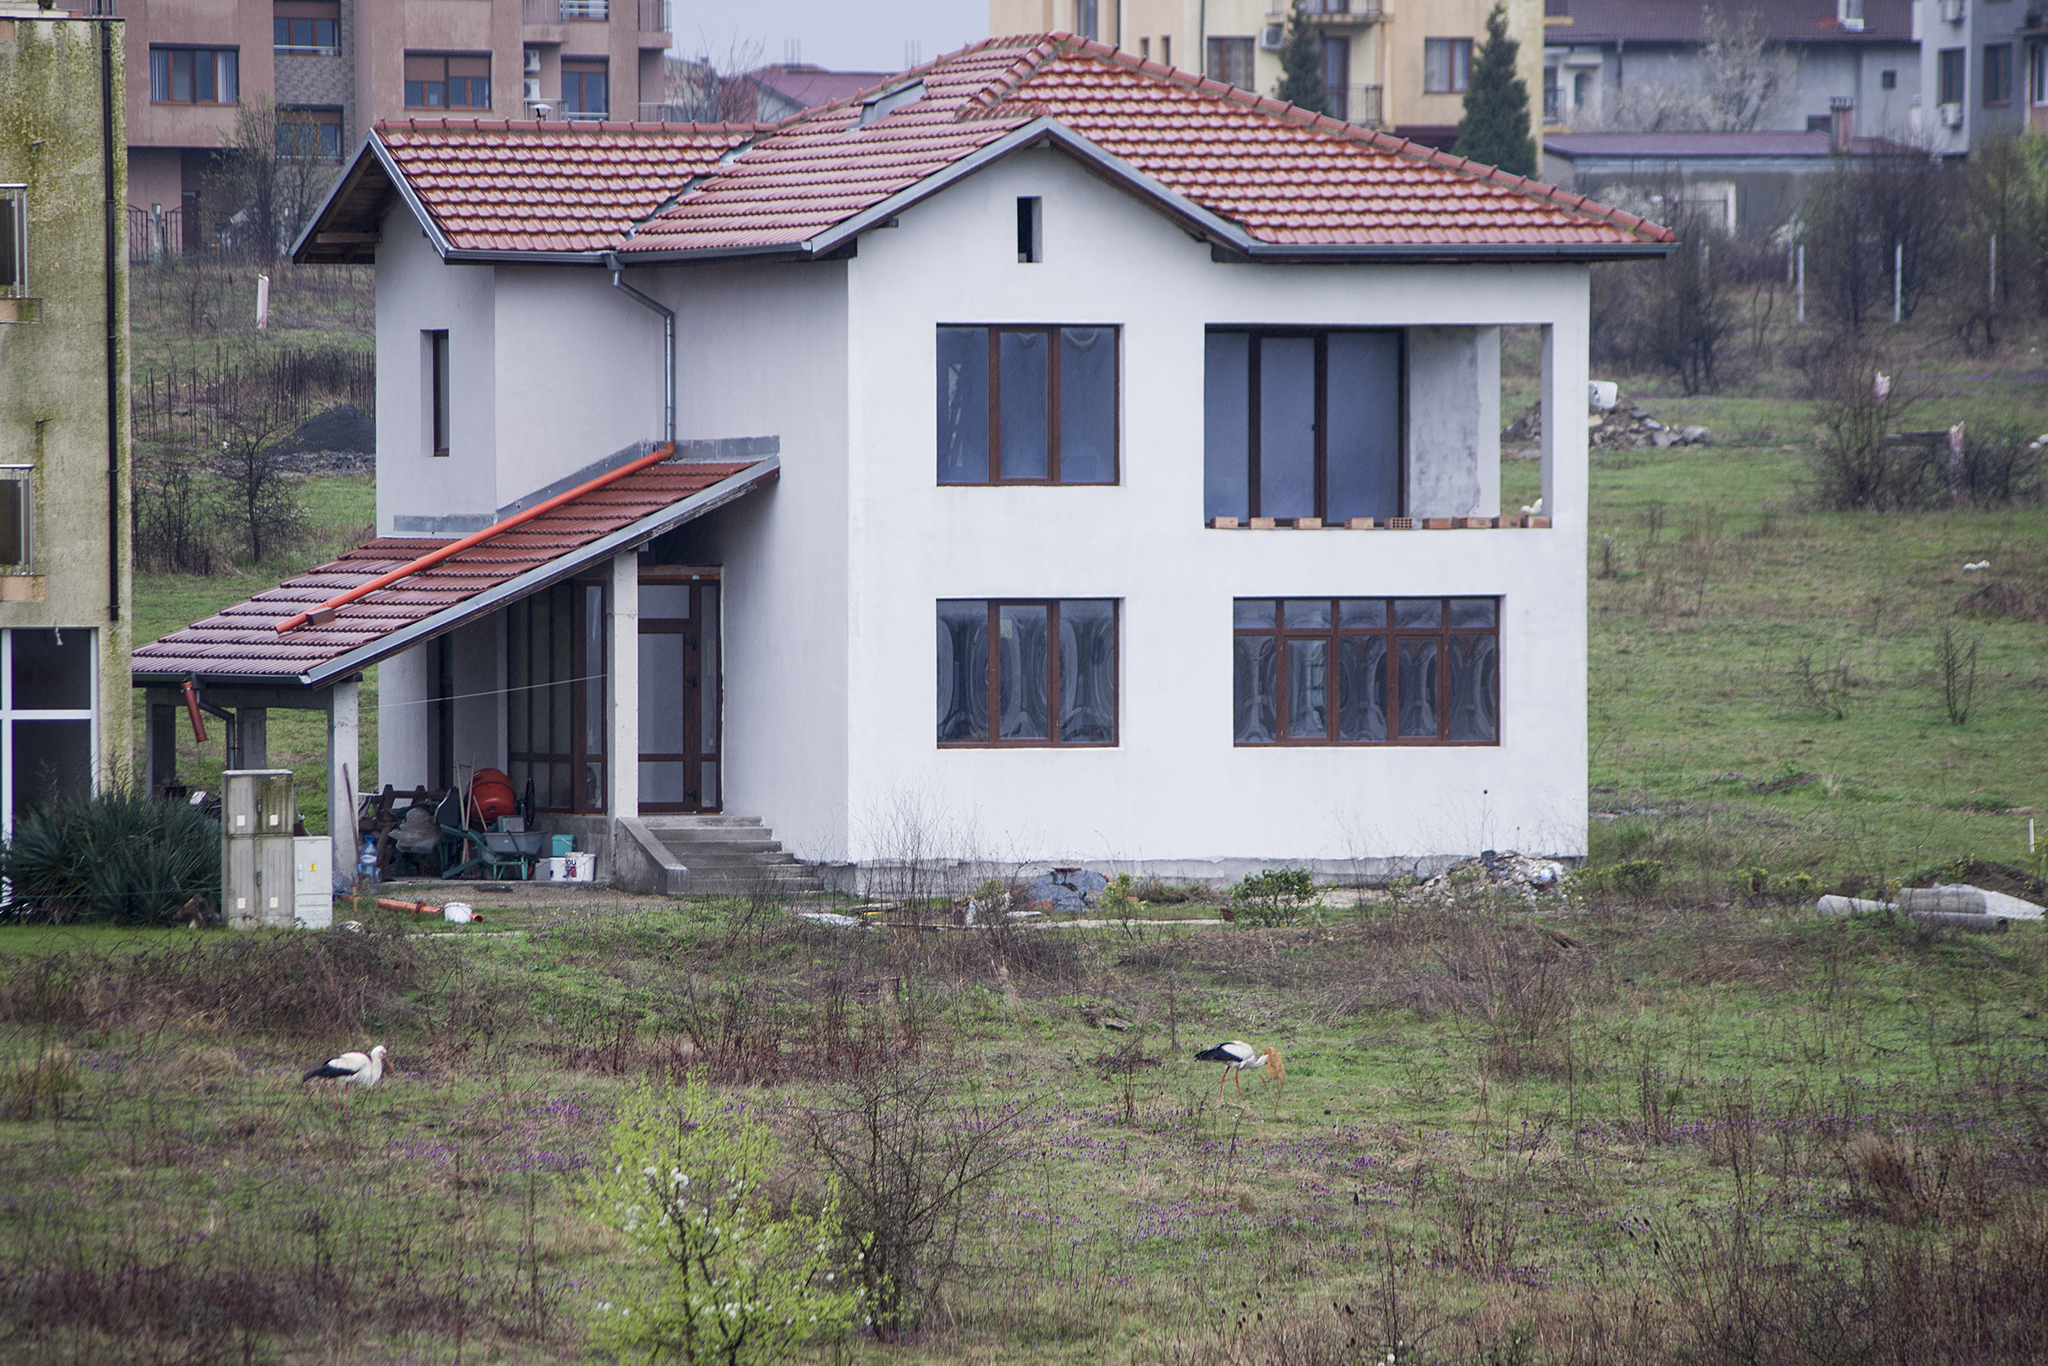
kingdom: Animalia
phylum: Chordata
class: Aves
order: Ciconiiformes
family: Ciconiidae
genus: Ciconia
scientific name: Ciconia ciconia
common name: White stork
